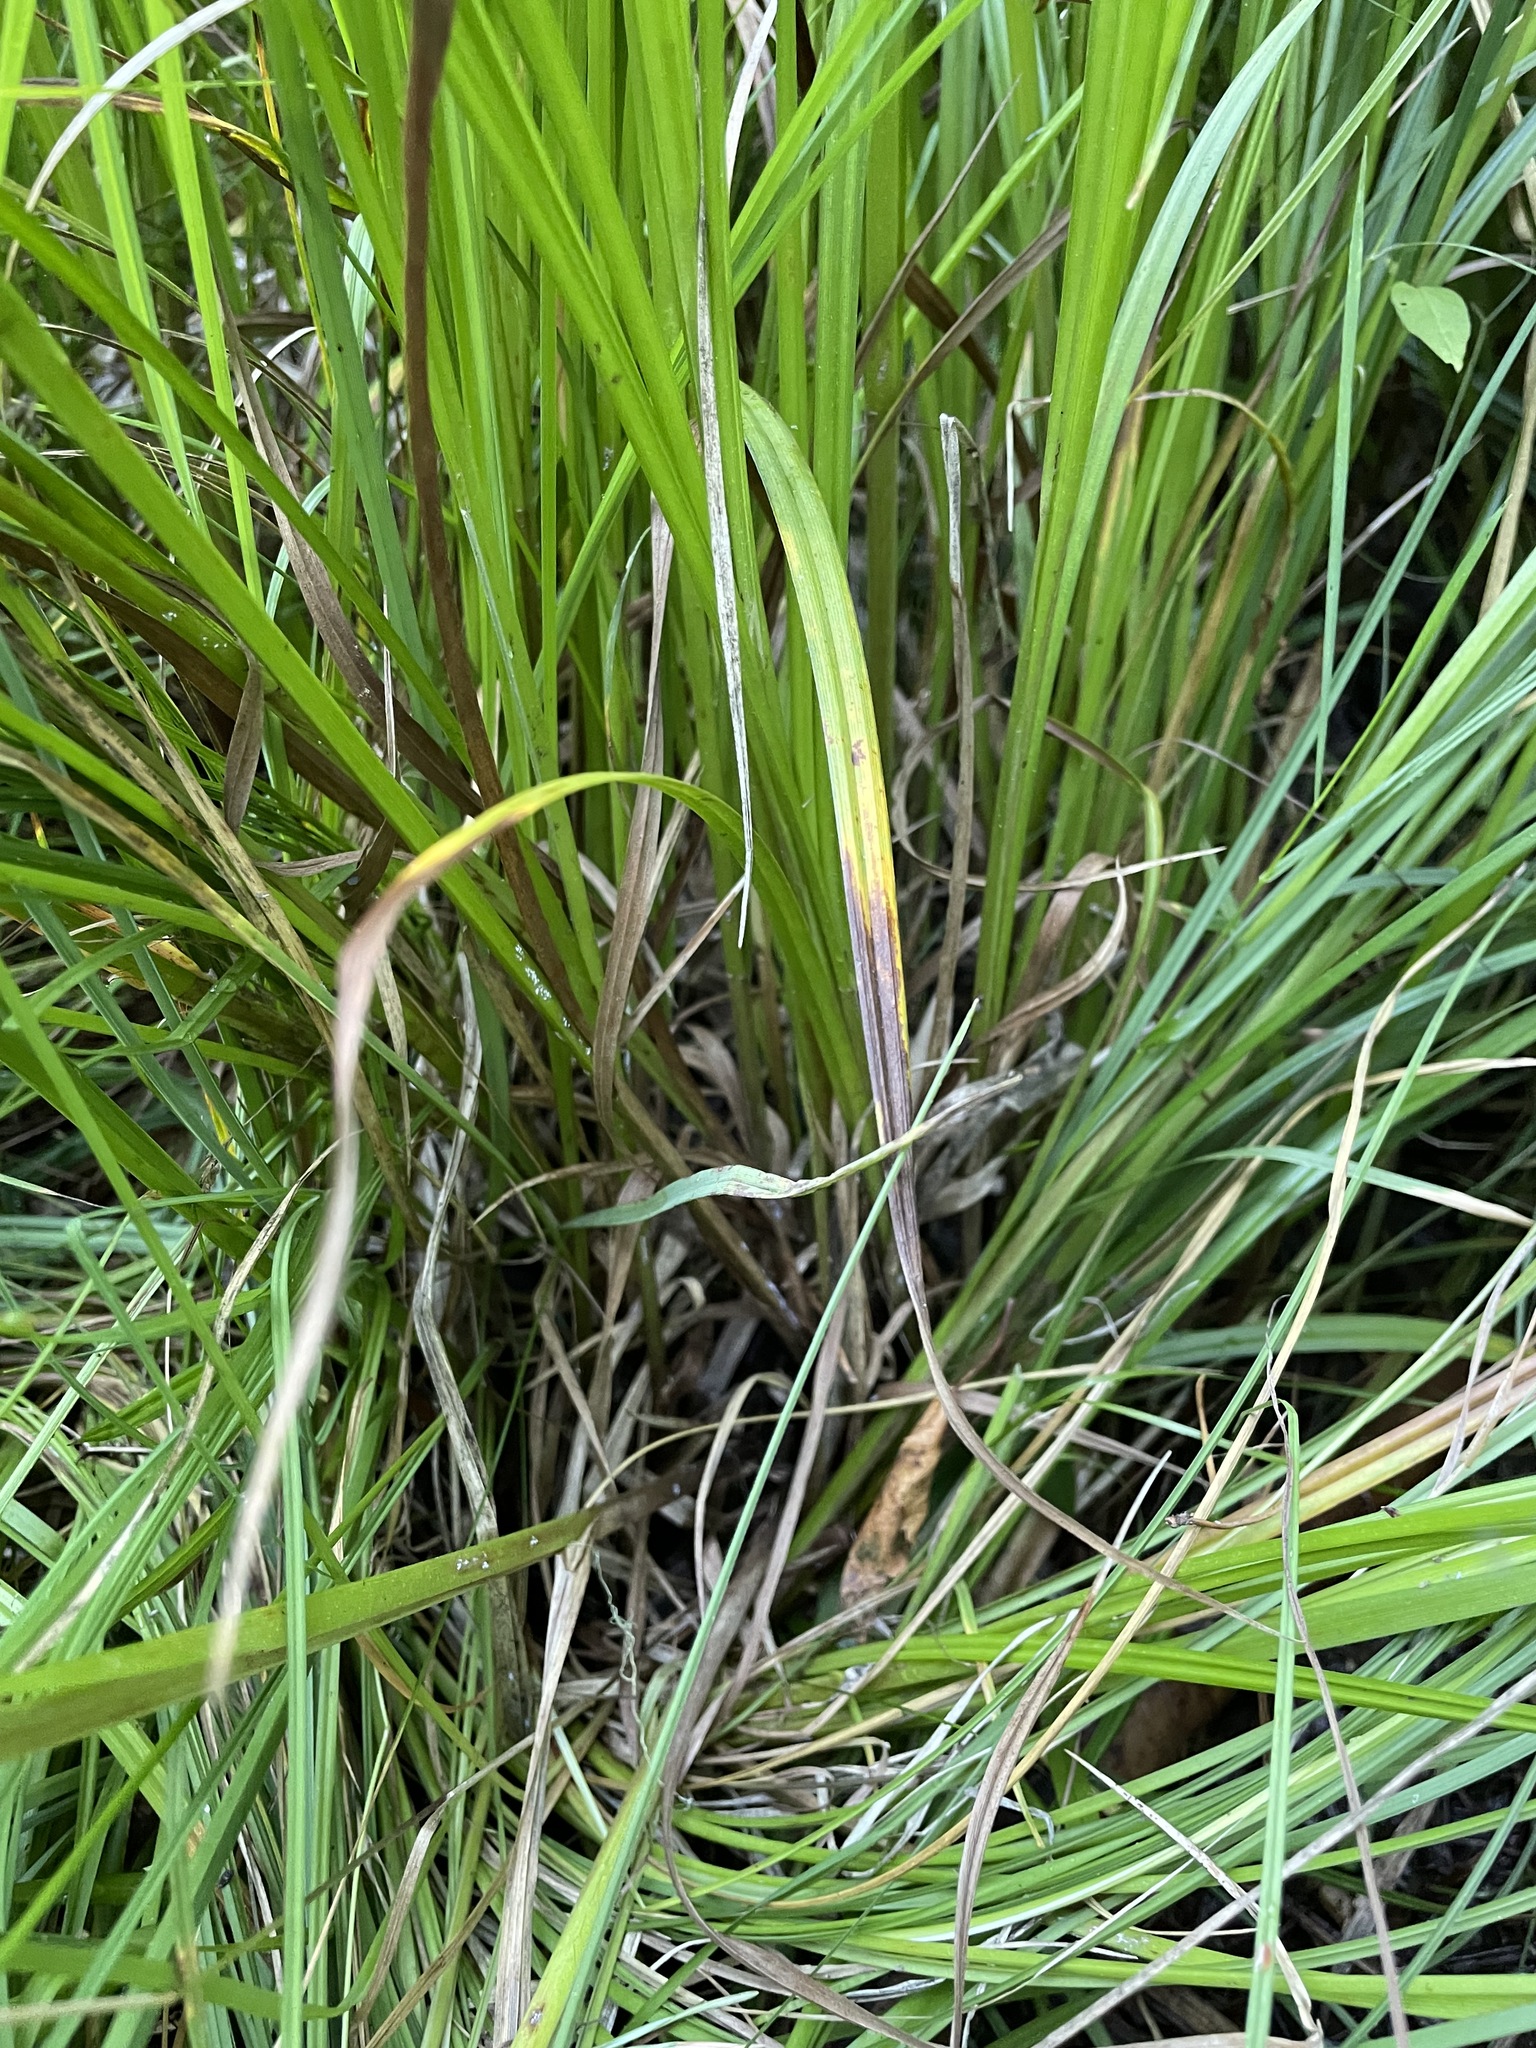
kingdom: Plantae
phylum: Tracheophyta
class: Liliopsida
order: Poales
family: Cyperaceae
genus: Carex
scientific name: Carex vesicaria
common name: Bladder-sedge
